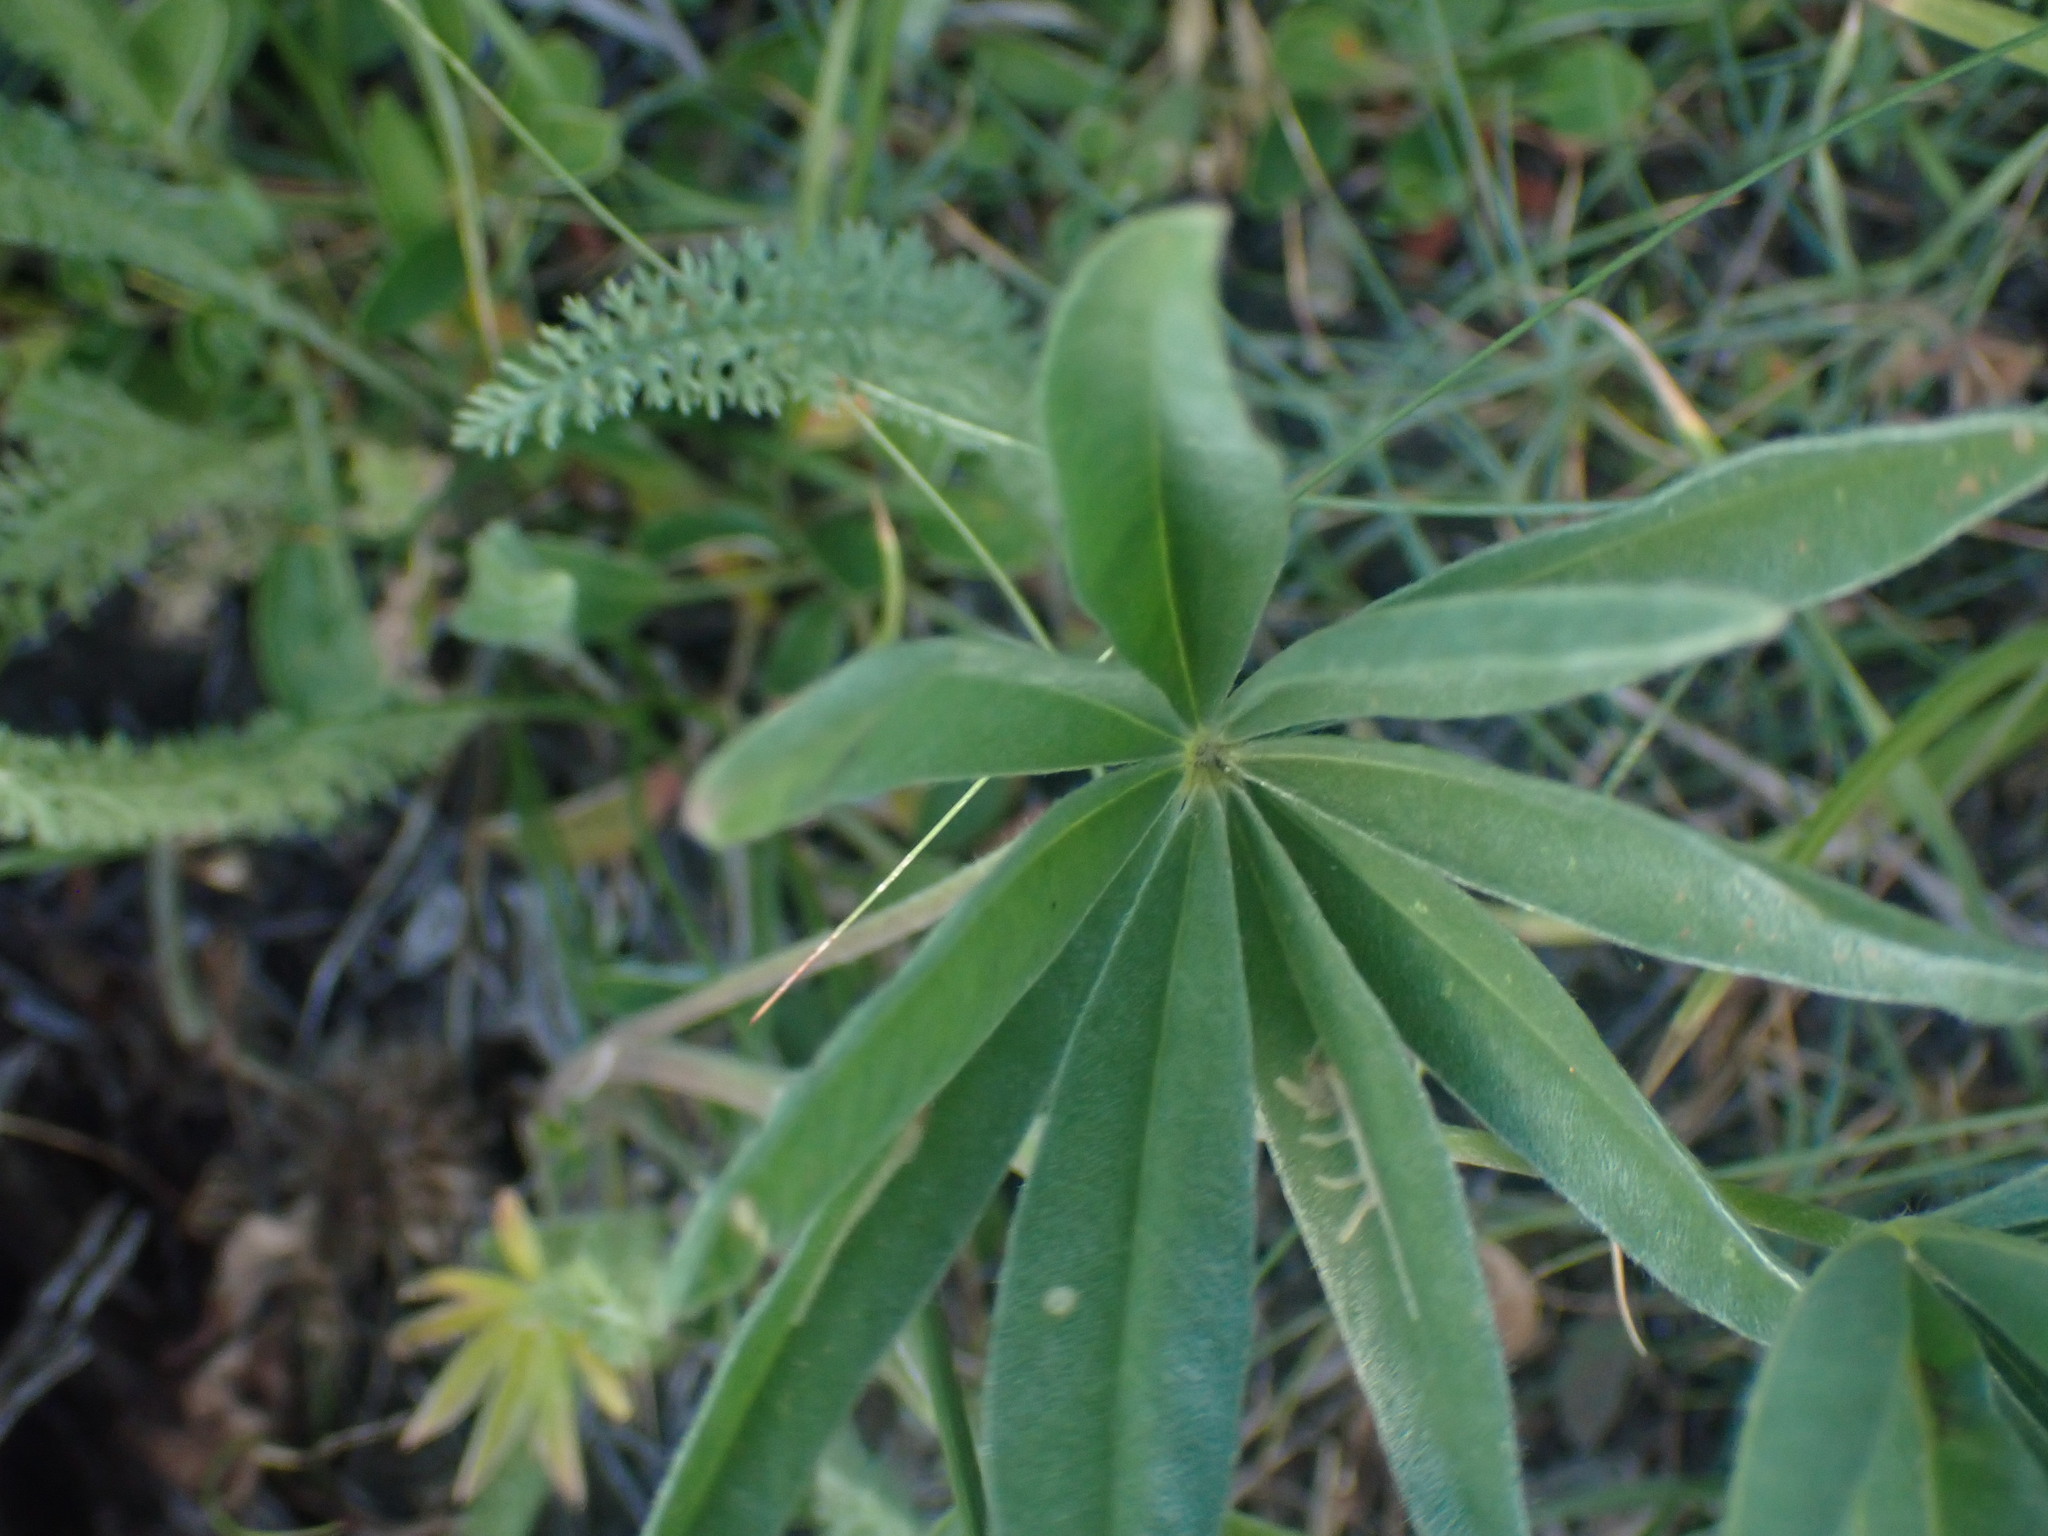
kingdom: Plantae
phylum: Tracheophyta
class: Magnoliopsida
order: Fabales
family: Fabaceae
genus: Lupinus
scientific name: Lupinus sericeus
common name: Silky lupine
